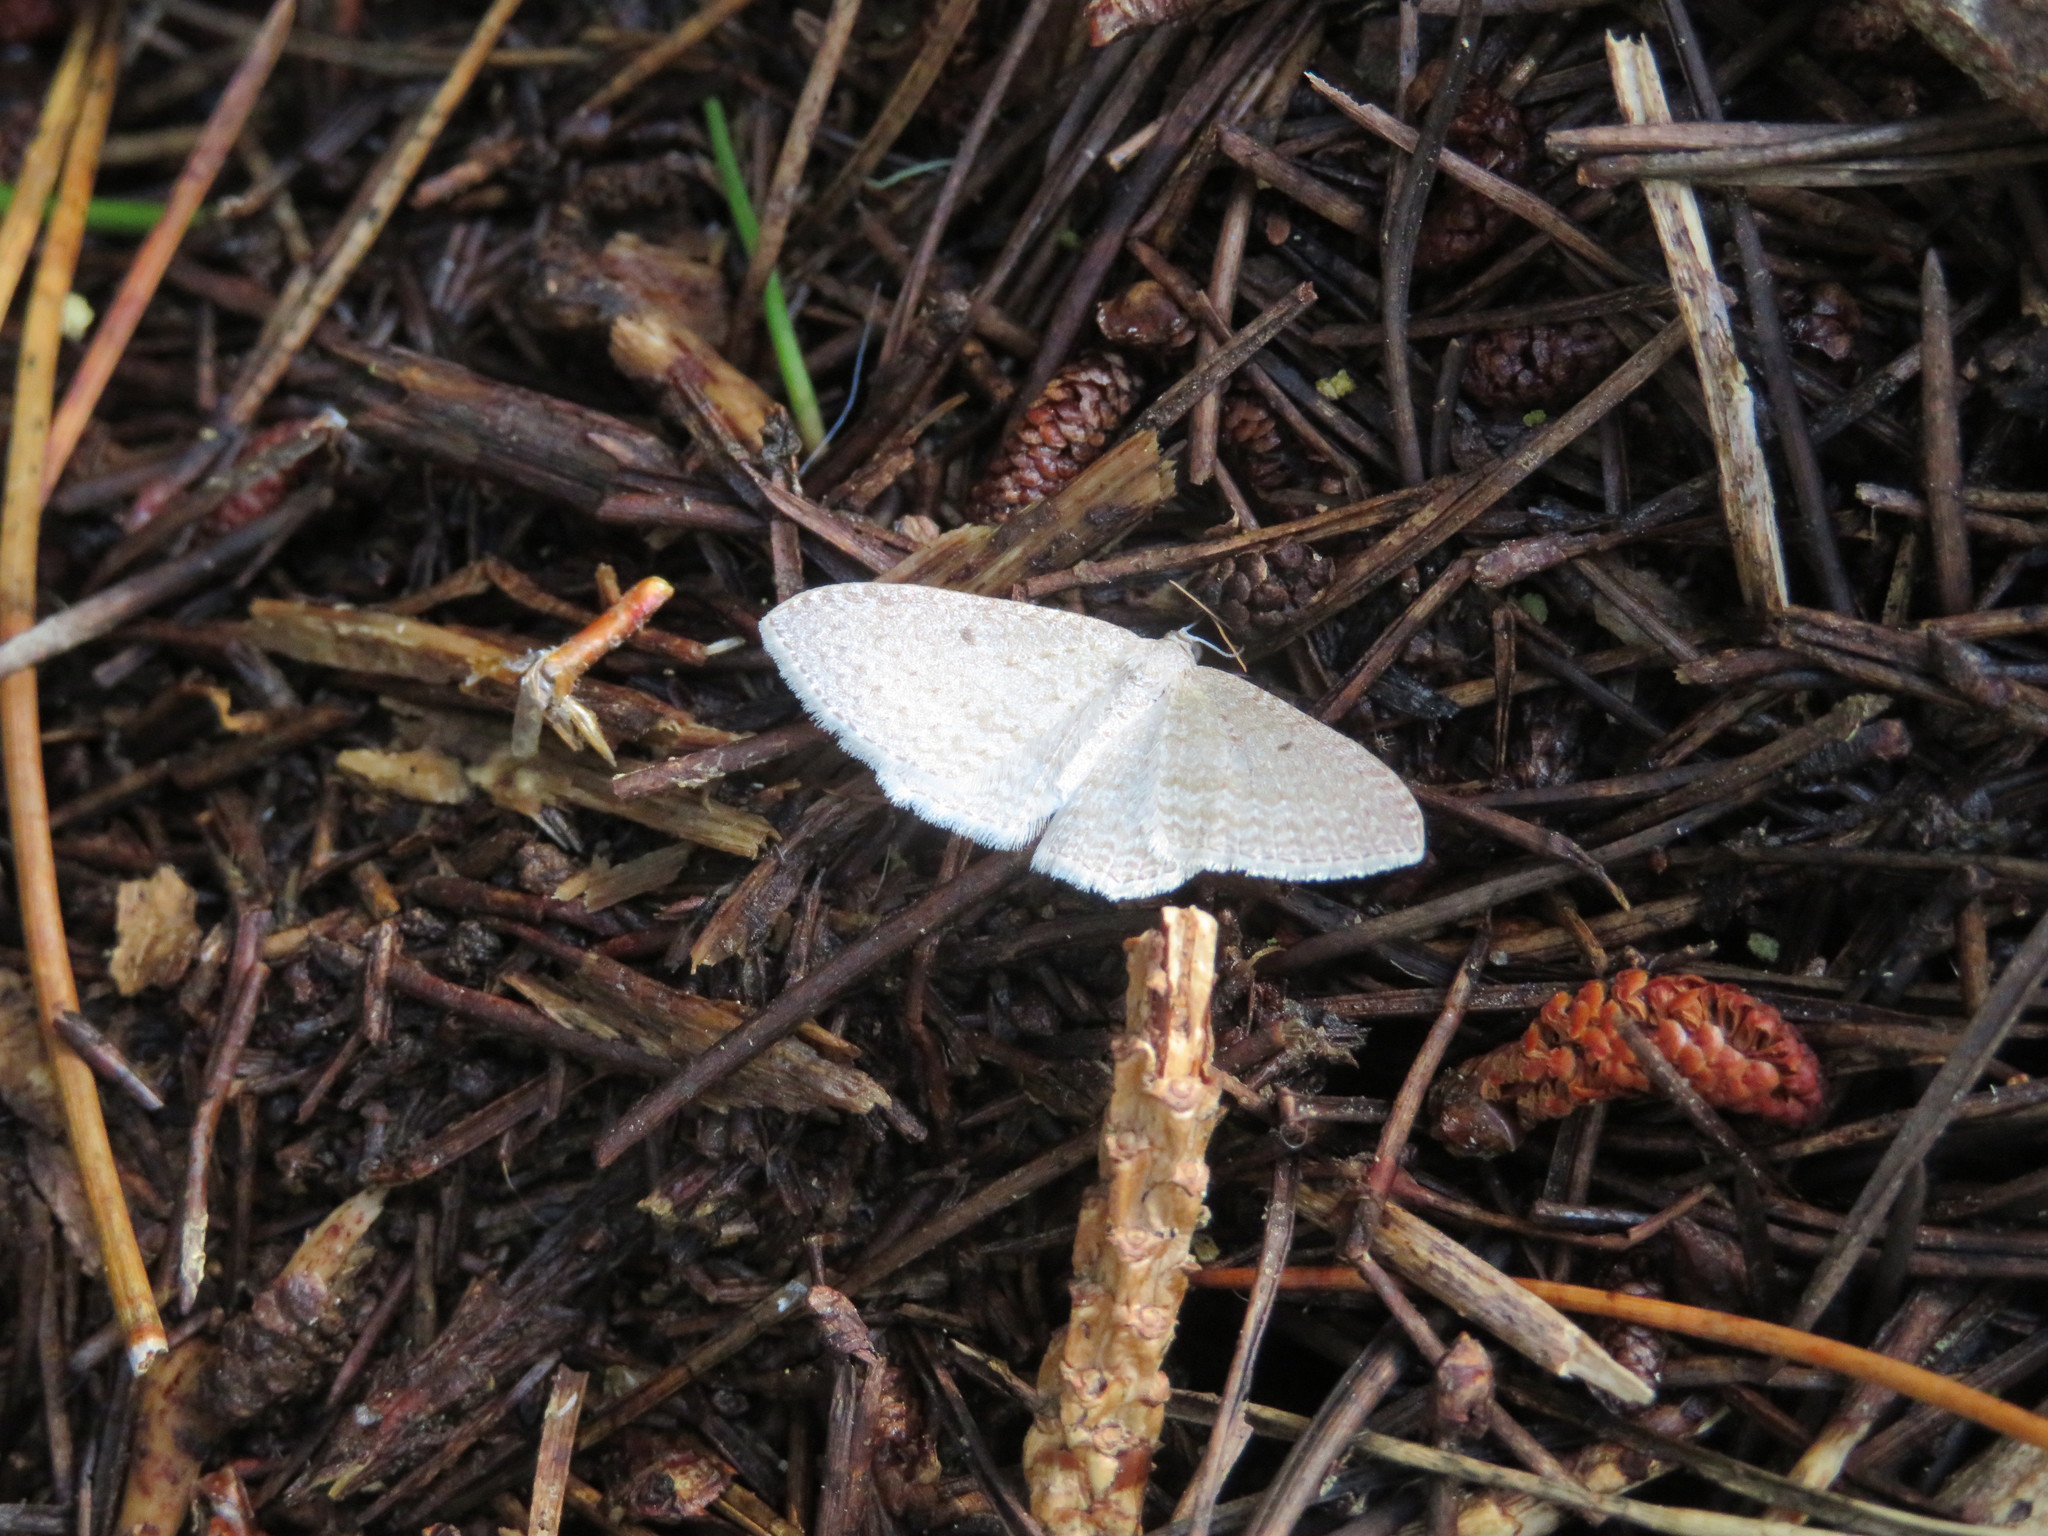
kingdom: Animalia
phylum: Arthropoda
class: Insecta
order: Lepidoptera
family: Geometridae
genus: Poecilasthena
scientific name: Poecilasthena pulchraria
